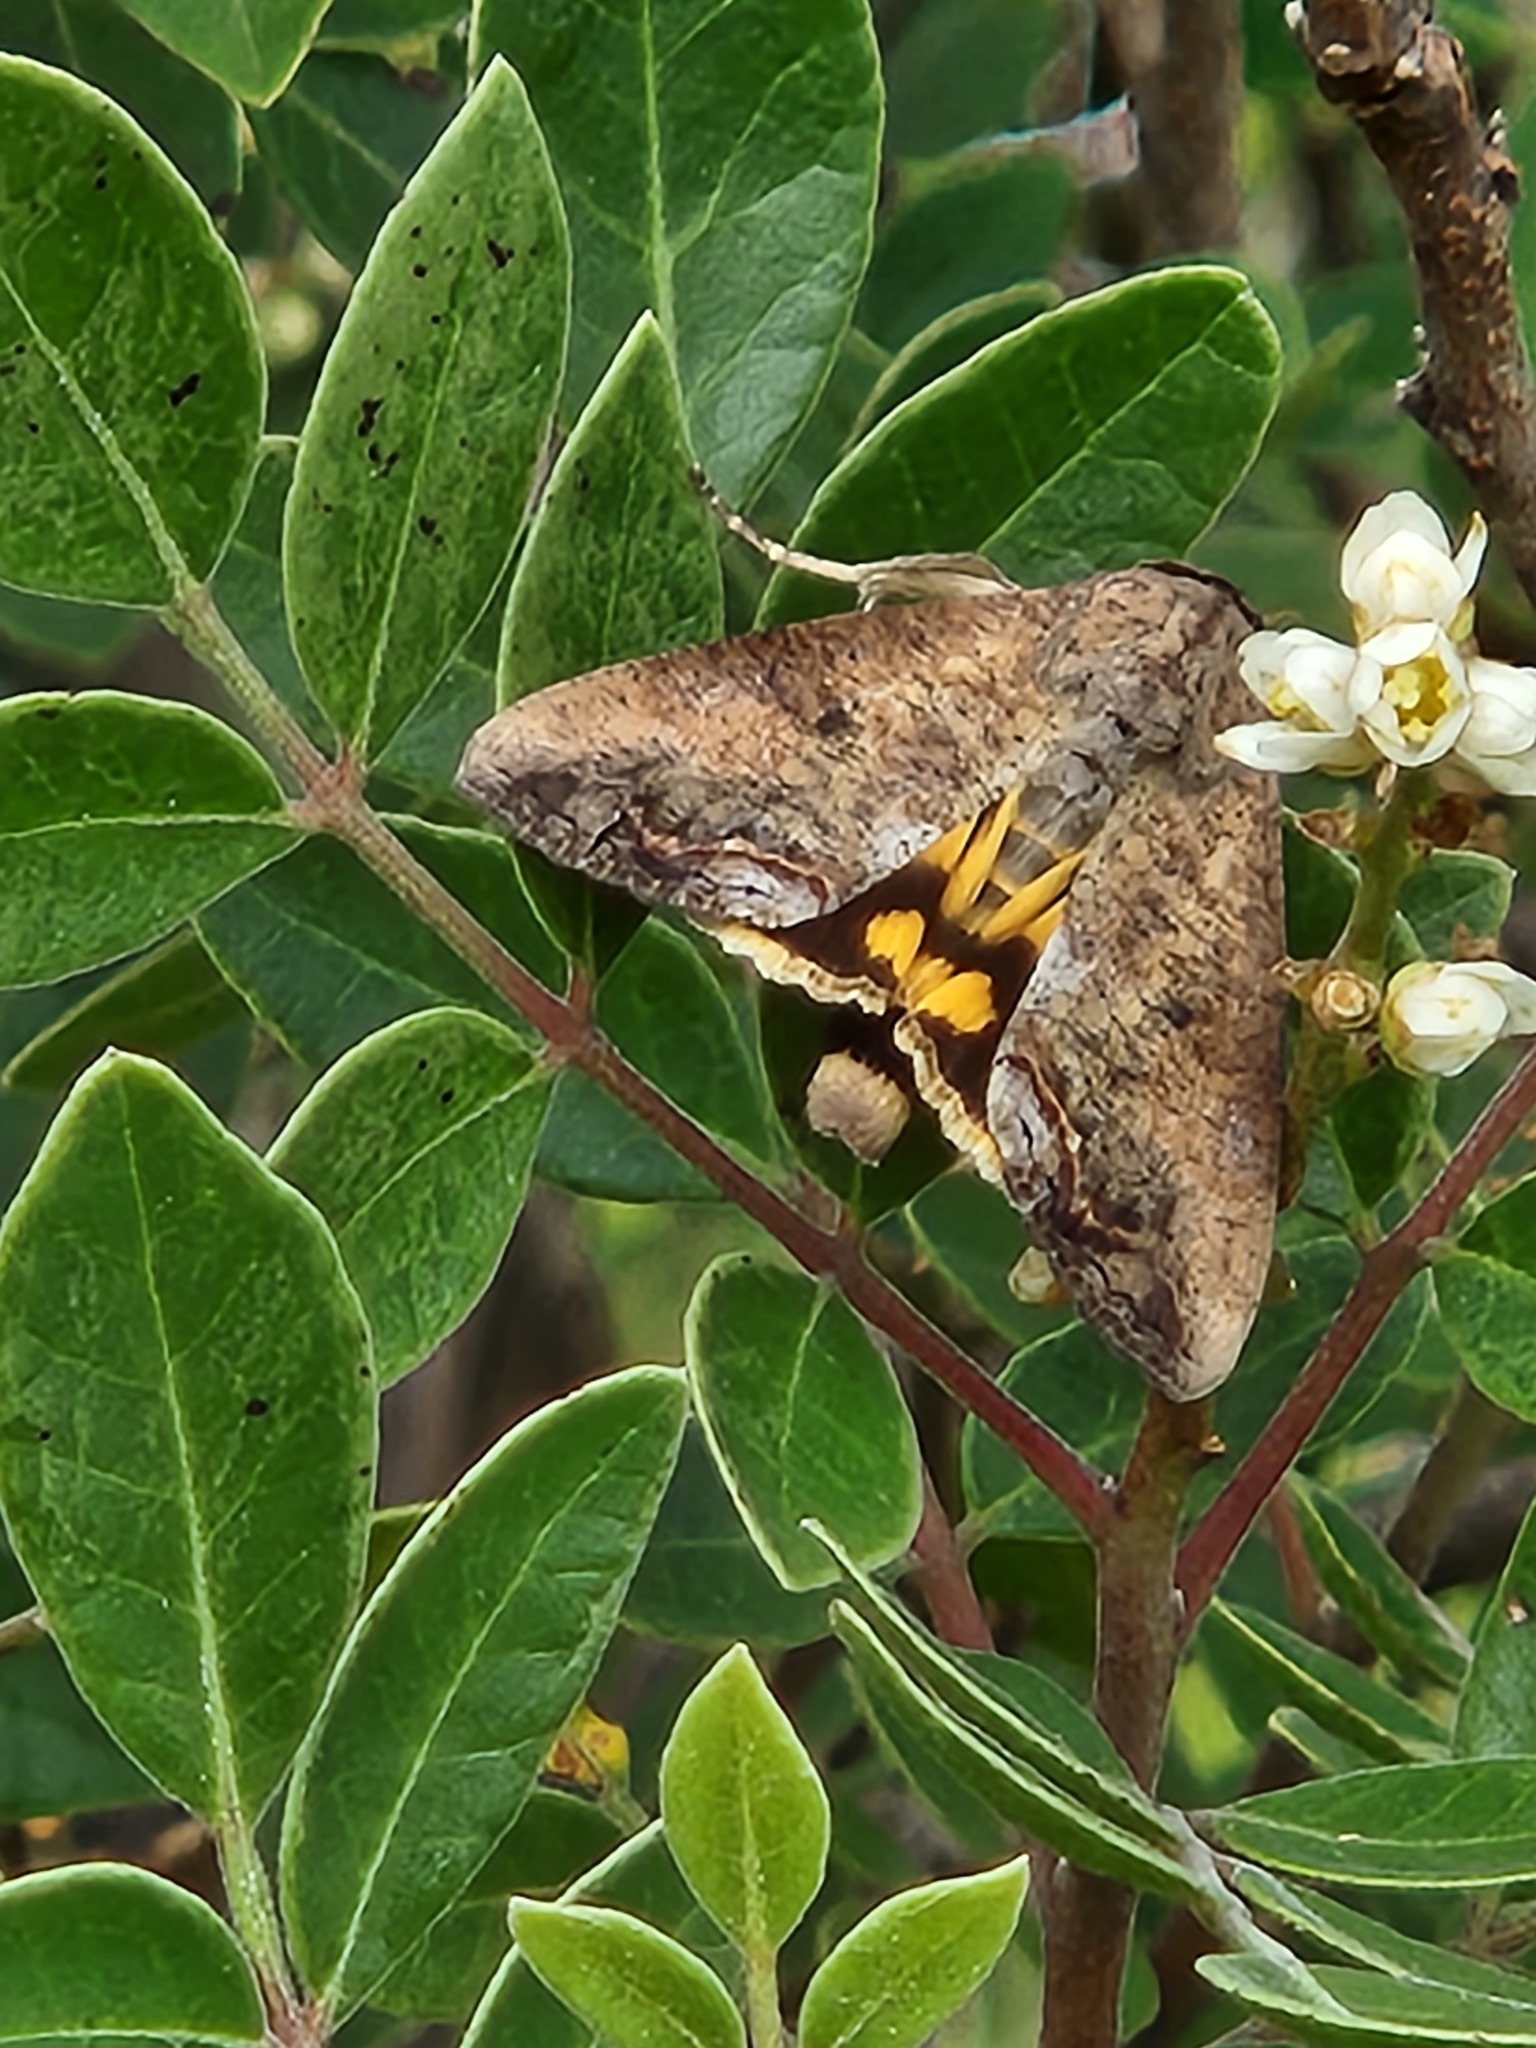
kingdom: Animalia
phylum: Arthropoda
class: Insecta
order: Lepidoptera
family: Erebidae
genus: Hypocala
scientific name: Hypocala andremona
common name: Hypocala moth
